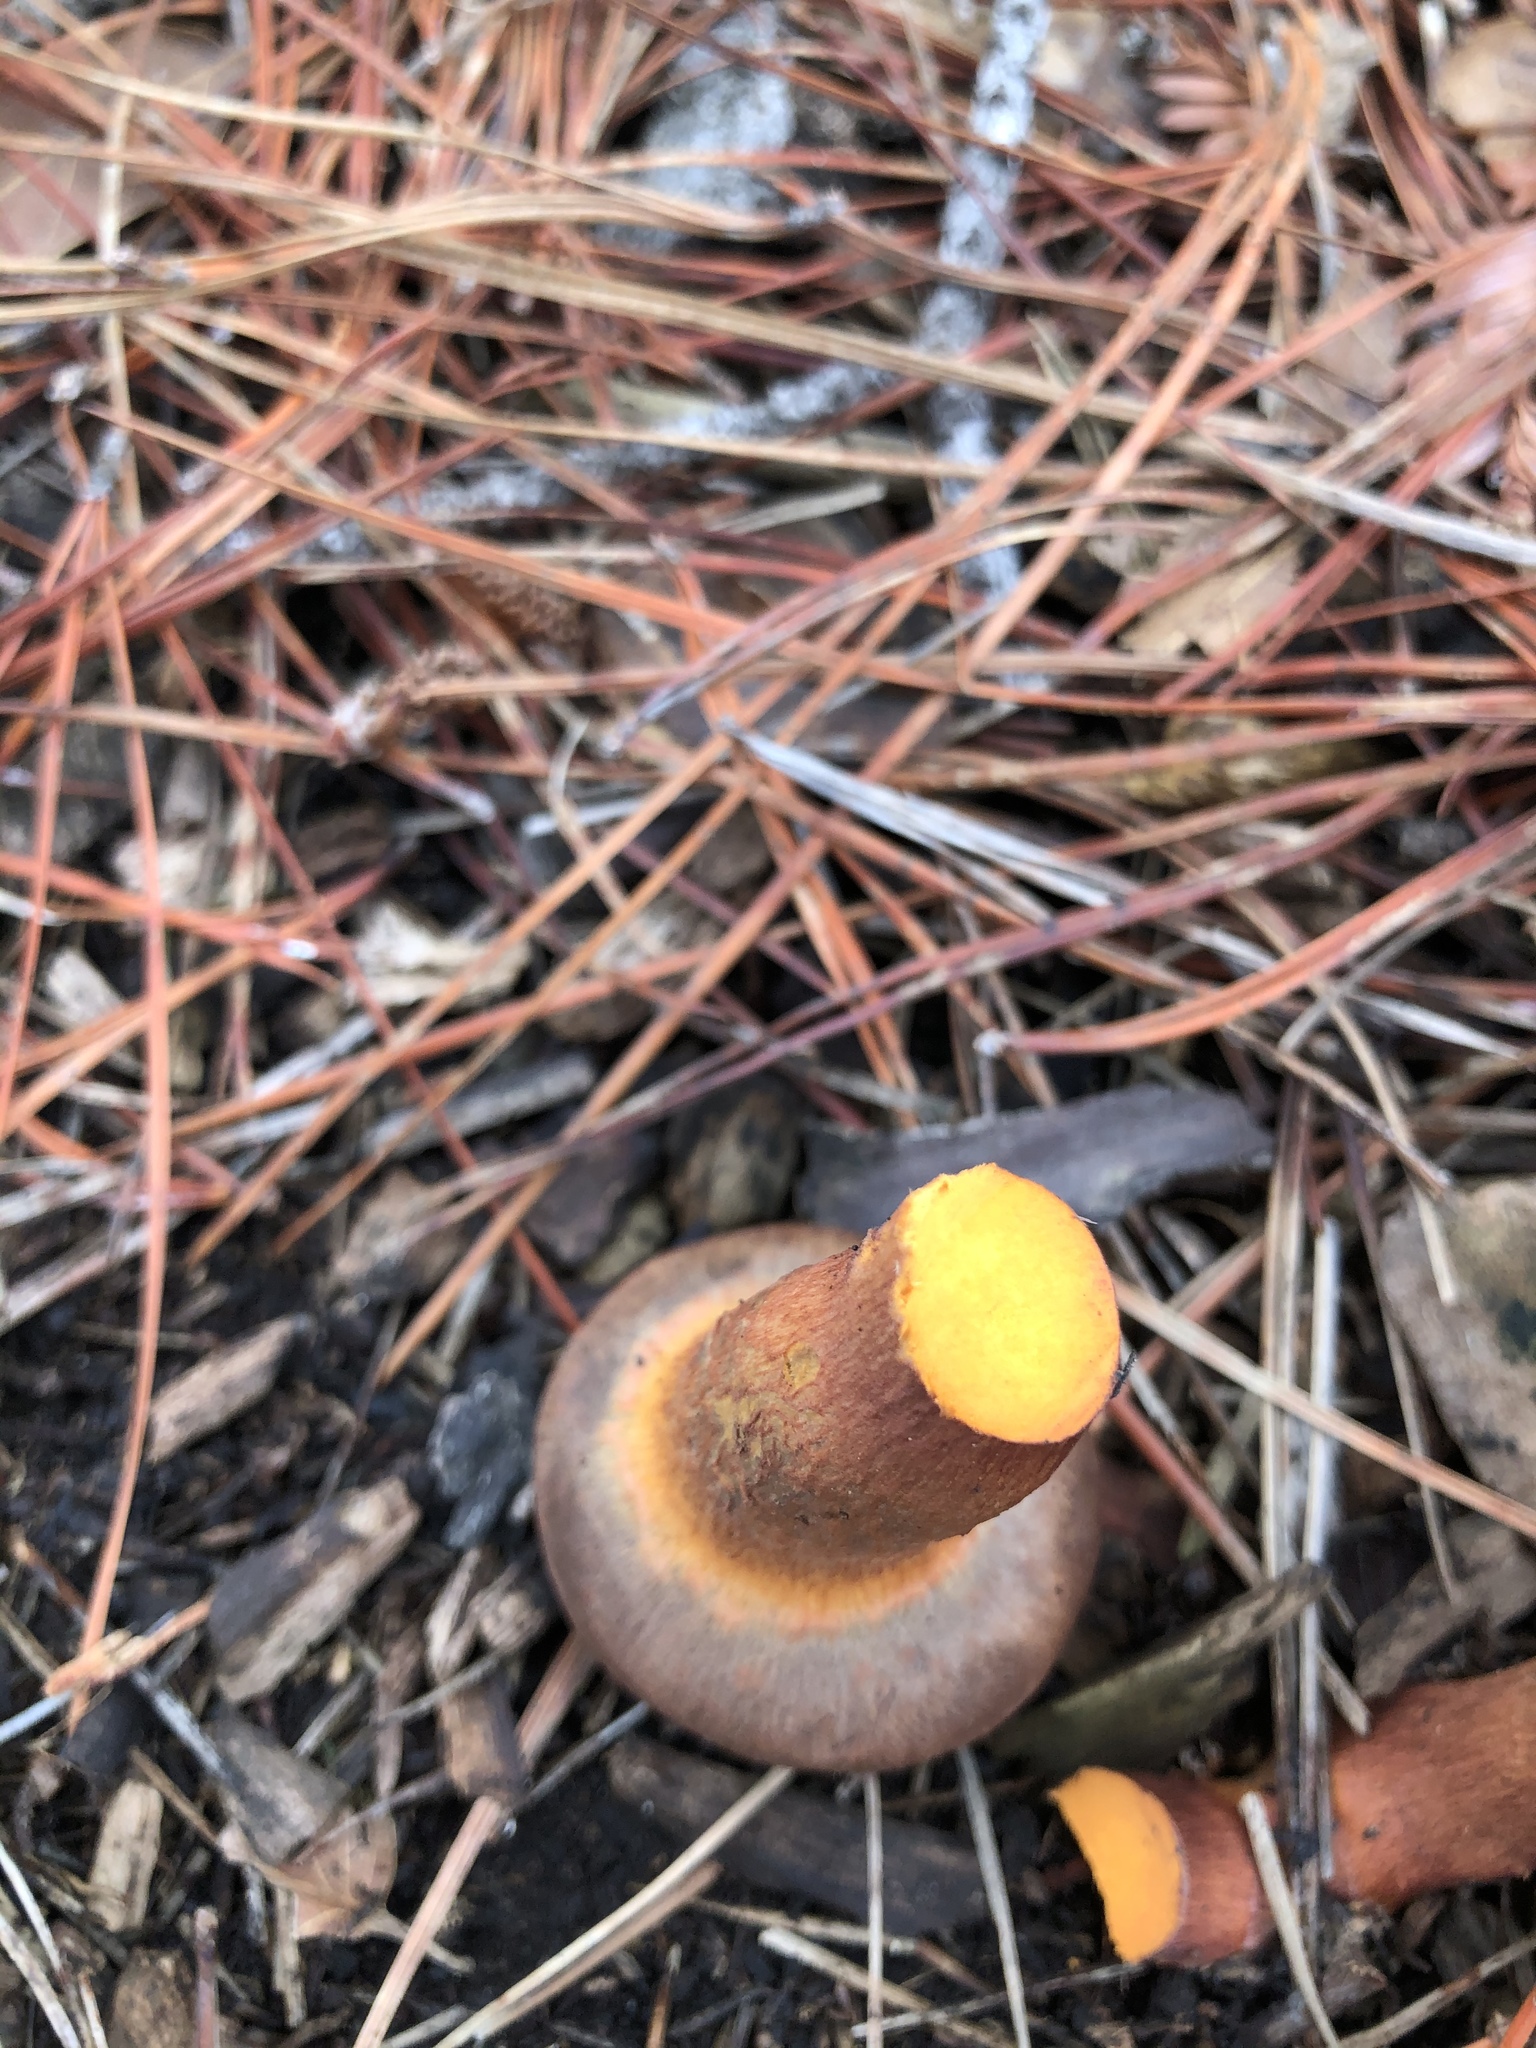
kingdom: Fungi
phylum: Basidiomycota
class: Agaricomycetes
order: Boletales
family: Gomphidiaceae
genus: Chroogomphus
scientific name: Chroogomphus vinicolor
